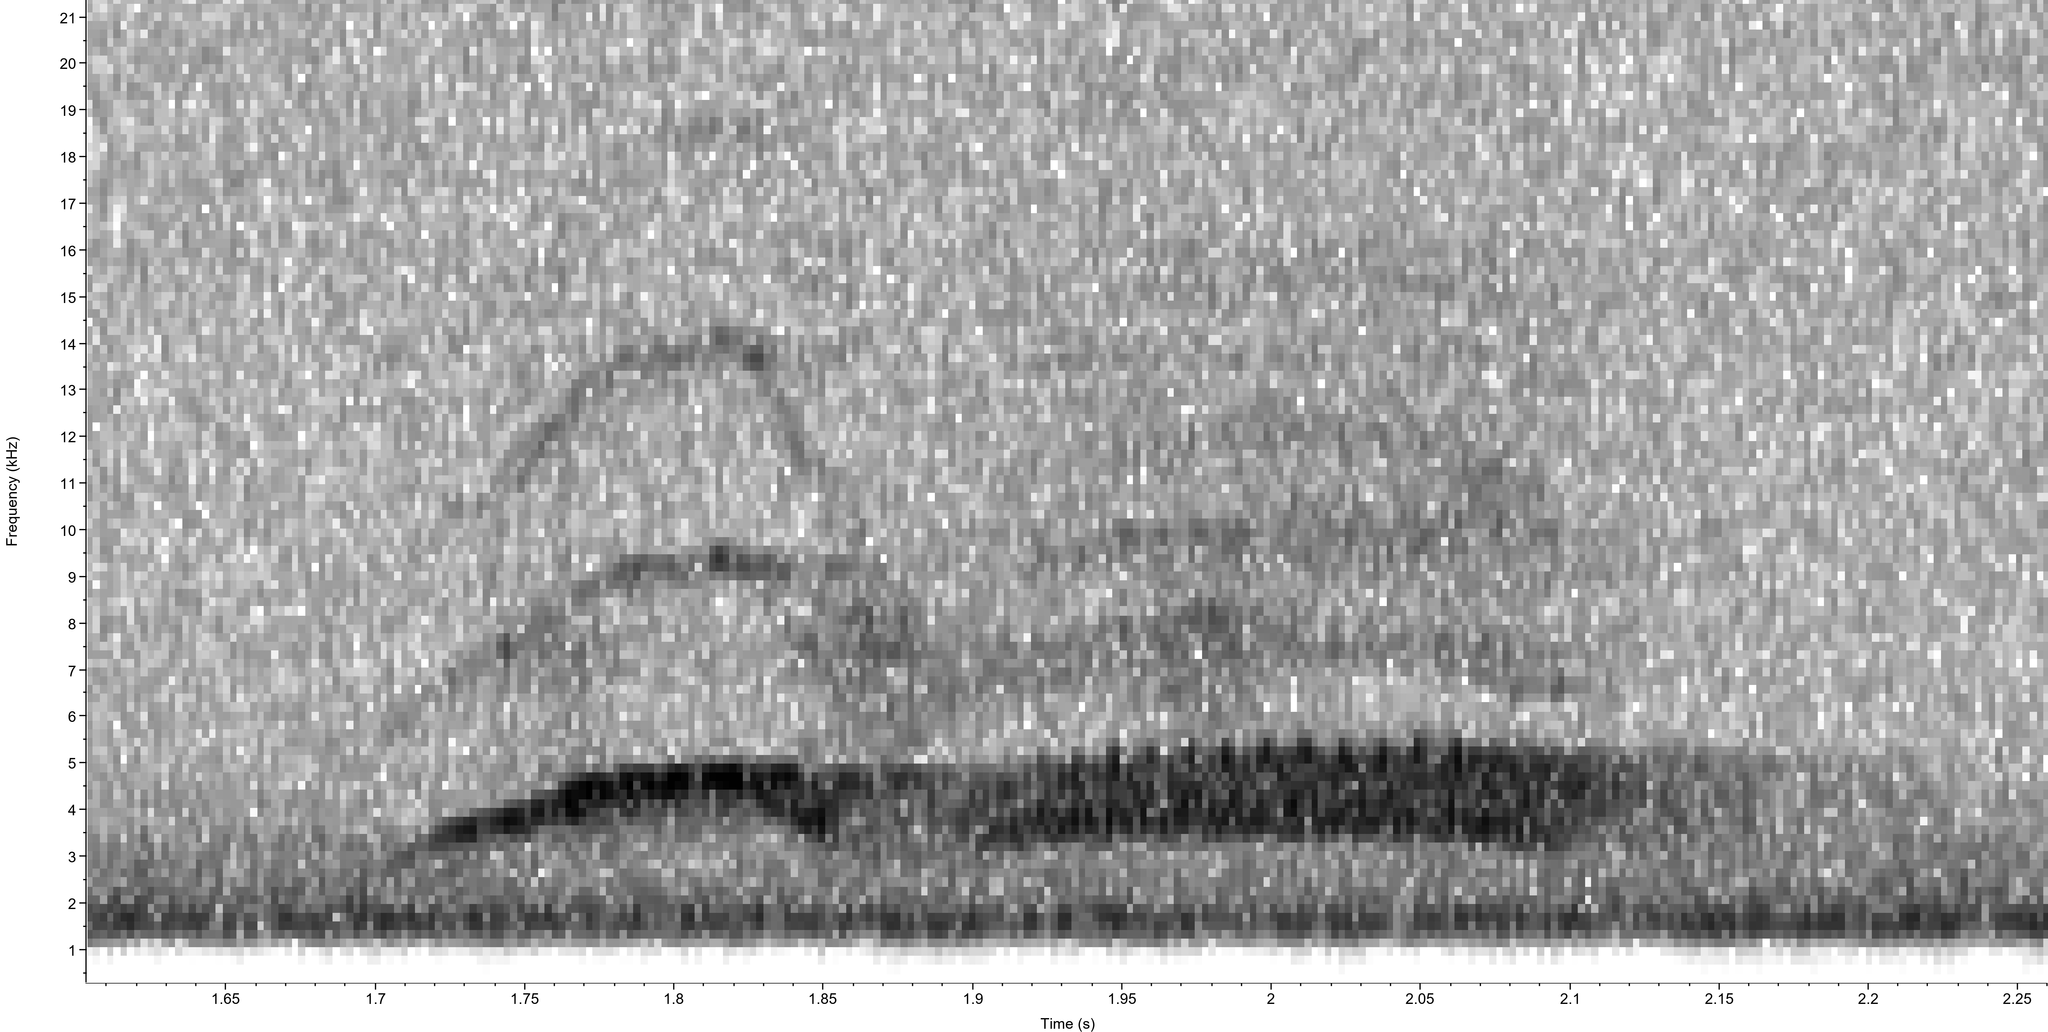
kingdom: Animalia
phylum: Chordata
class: Aves
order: Passeriformes
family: Tyrannidae
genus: Sayornis
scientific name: Sayornis phoebe
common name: Eastern phoebe
